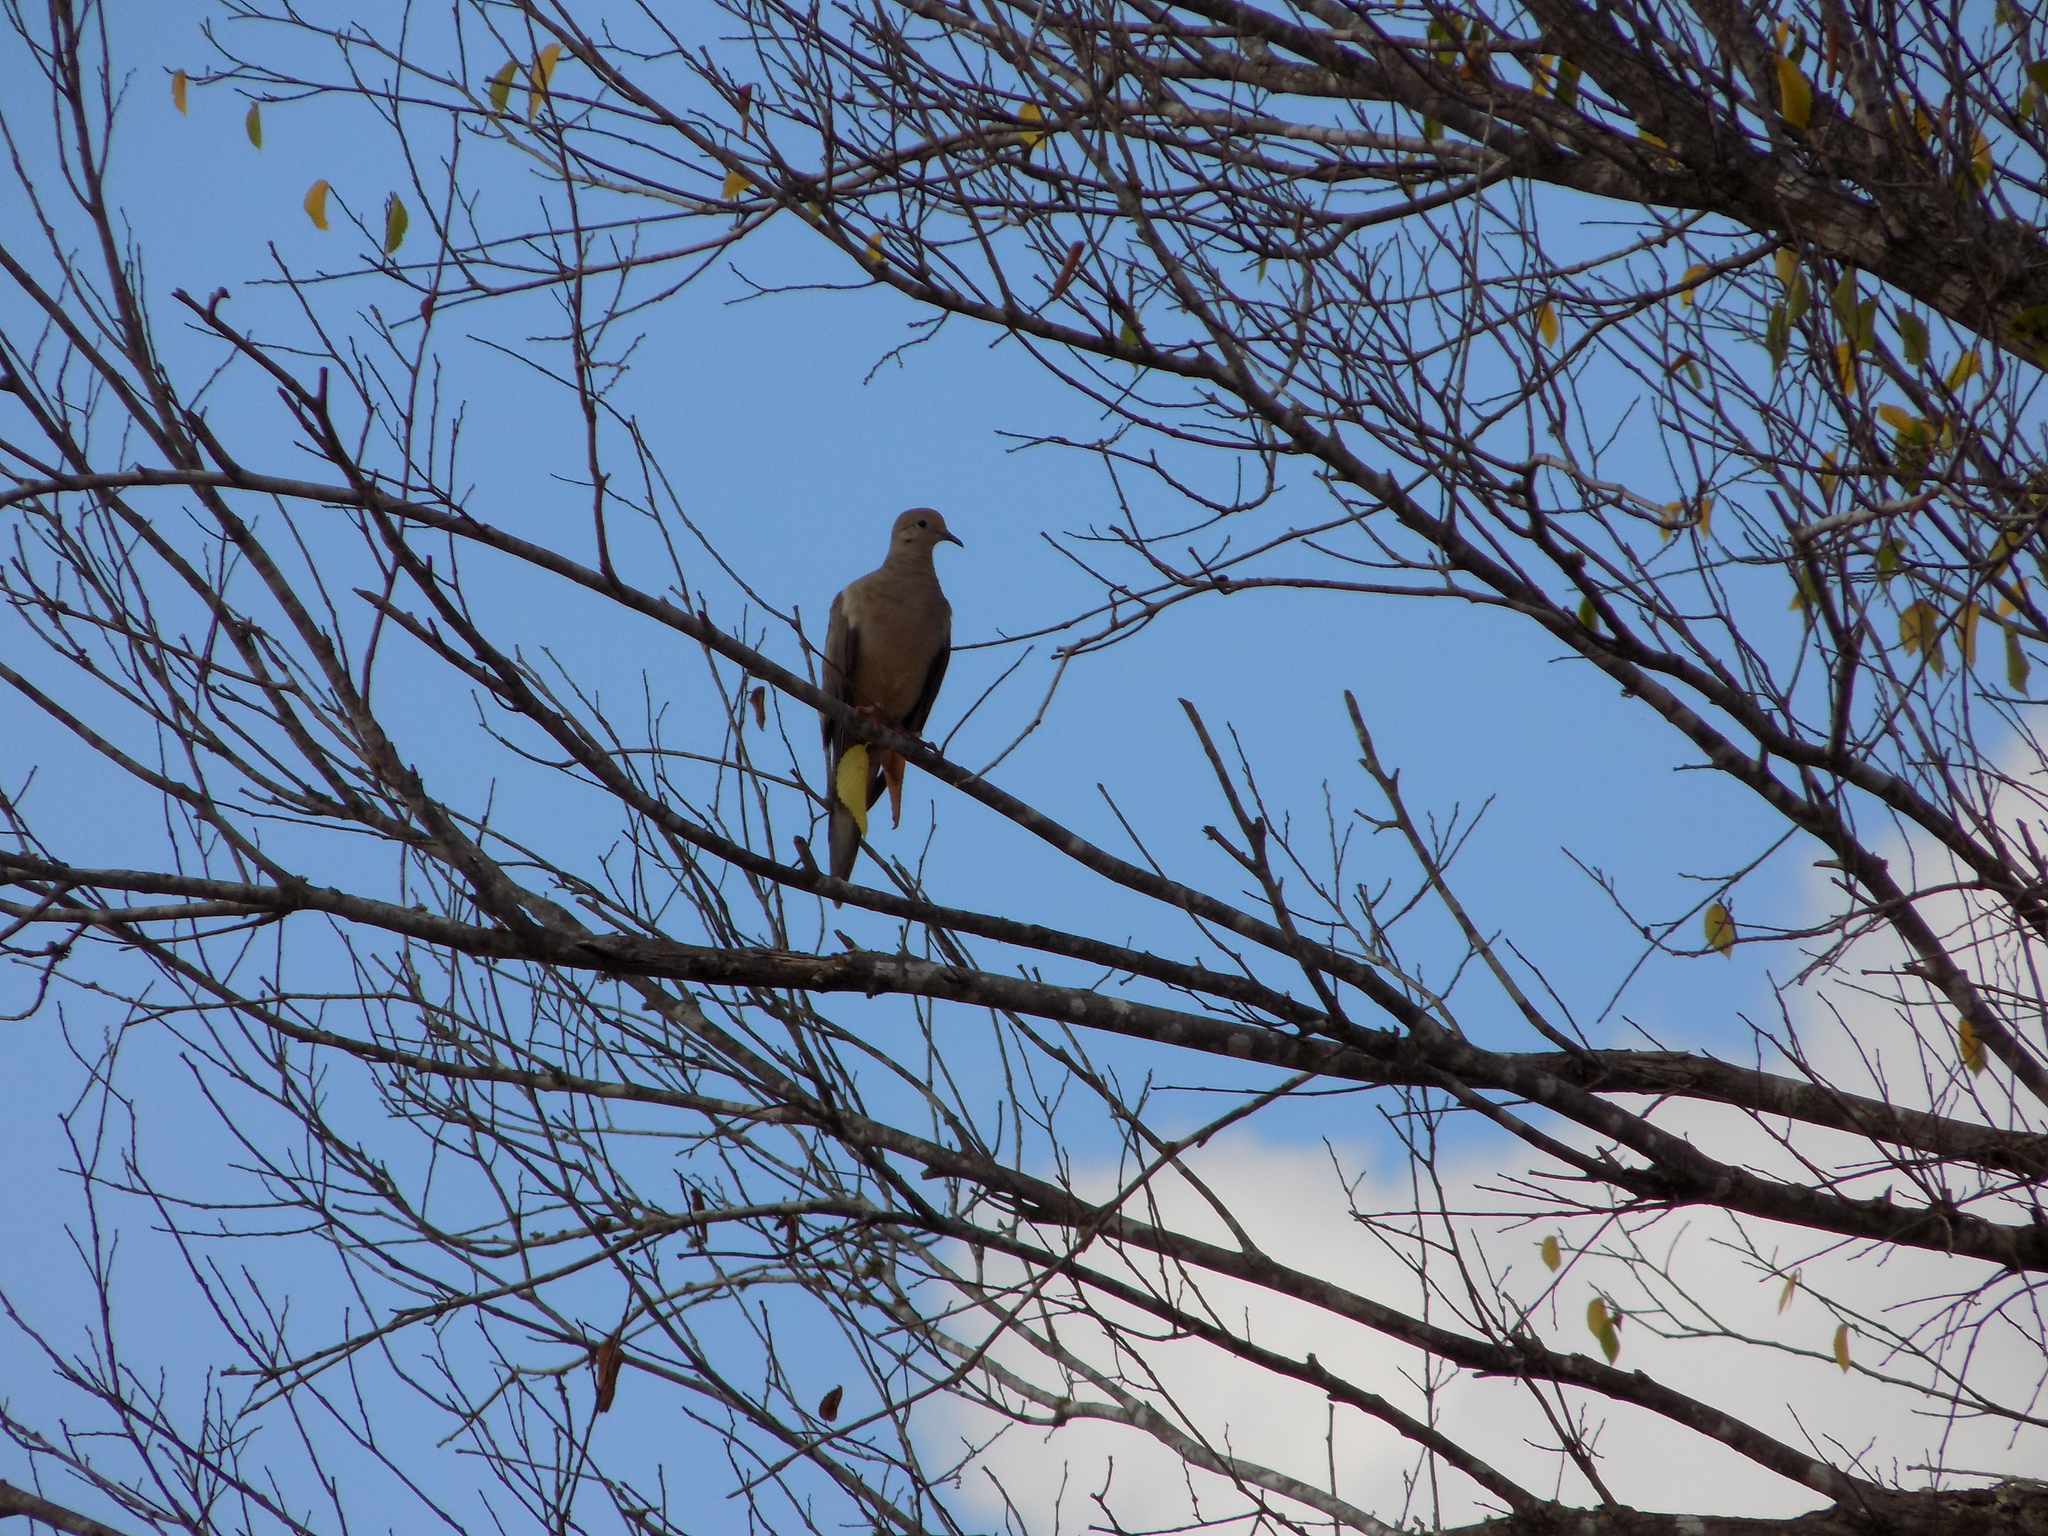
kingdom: Animalia
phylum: Chordata
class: Aves
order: Columbiformes
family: Columbidae
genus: Zenaida
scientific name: Zenaida macroura
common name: Mourning dove
